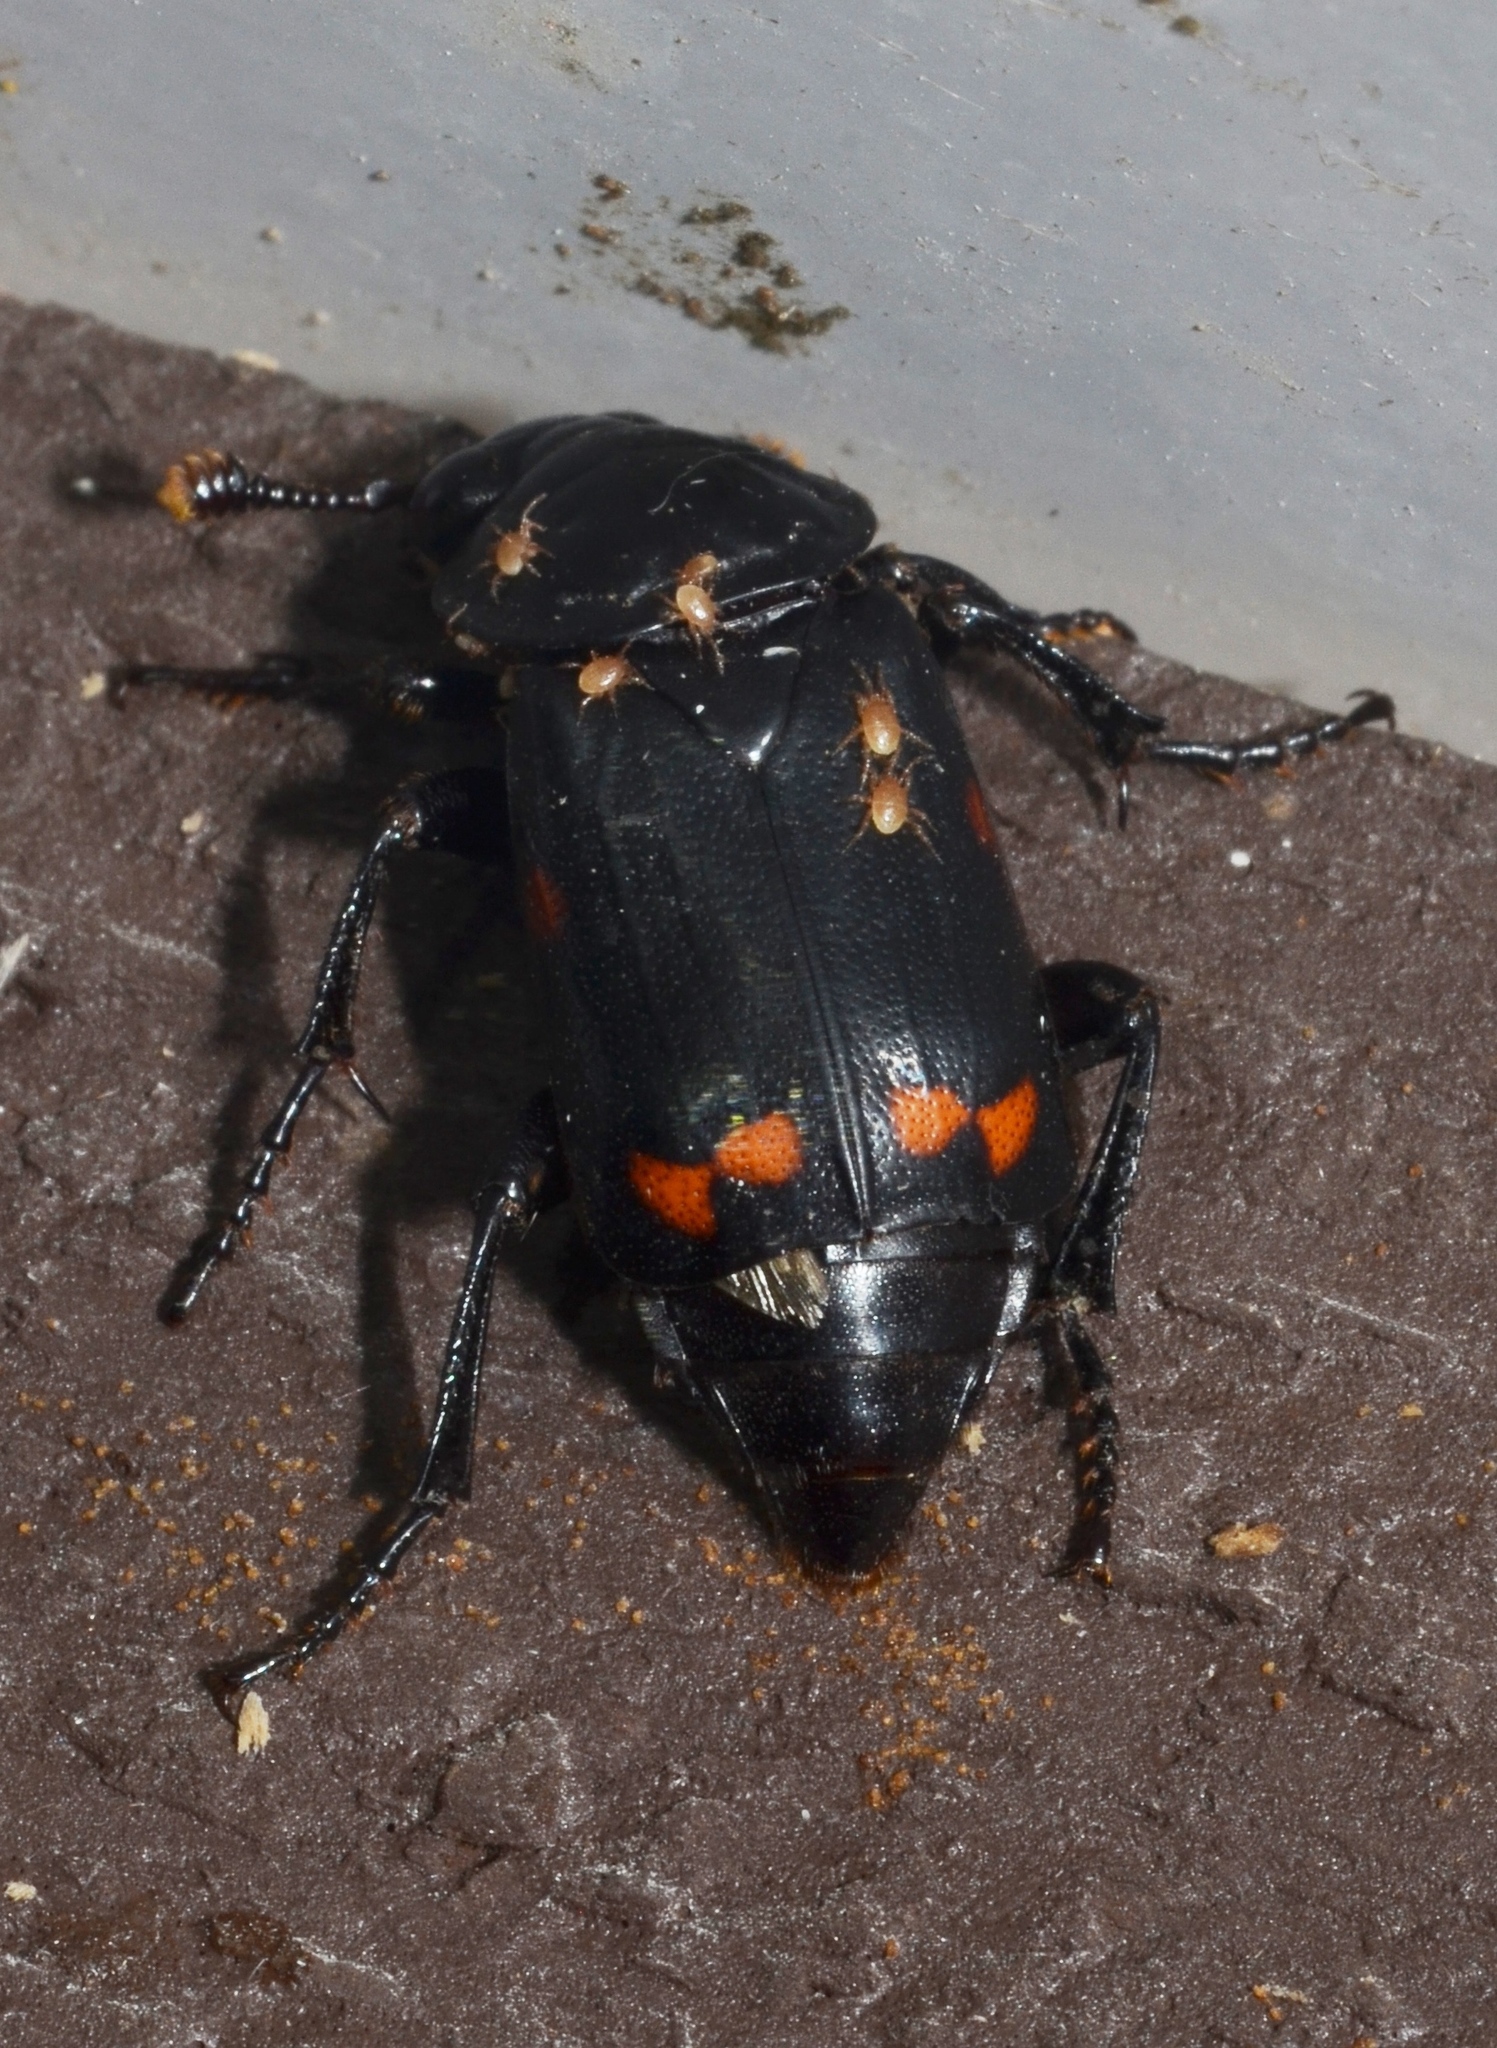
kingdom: Animalia
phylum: Arthropoda
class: Insecta
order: Coleoptera
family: Staphylinidae
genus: Nicrophorus
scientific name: Nicrophorus pustulatus
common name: Pustulated carrion beetle
